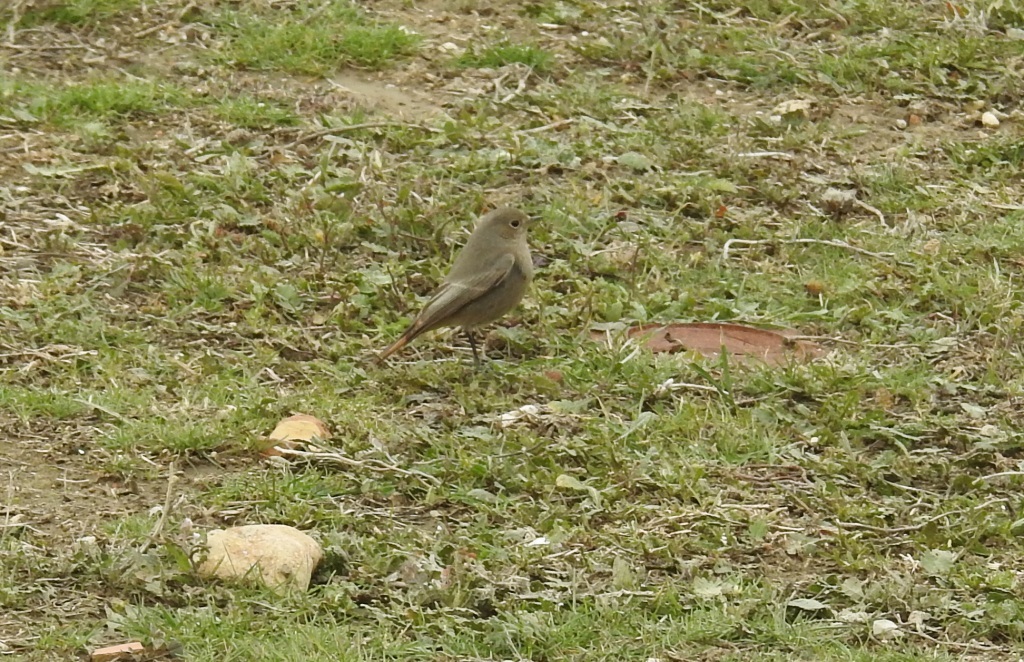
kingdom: Animalia
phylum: Chordata
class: Aves
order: Passeriformes
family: Muscicapidae
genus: Phoenicurus
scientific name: Phoenicurus ochruros
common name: Black redstart
